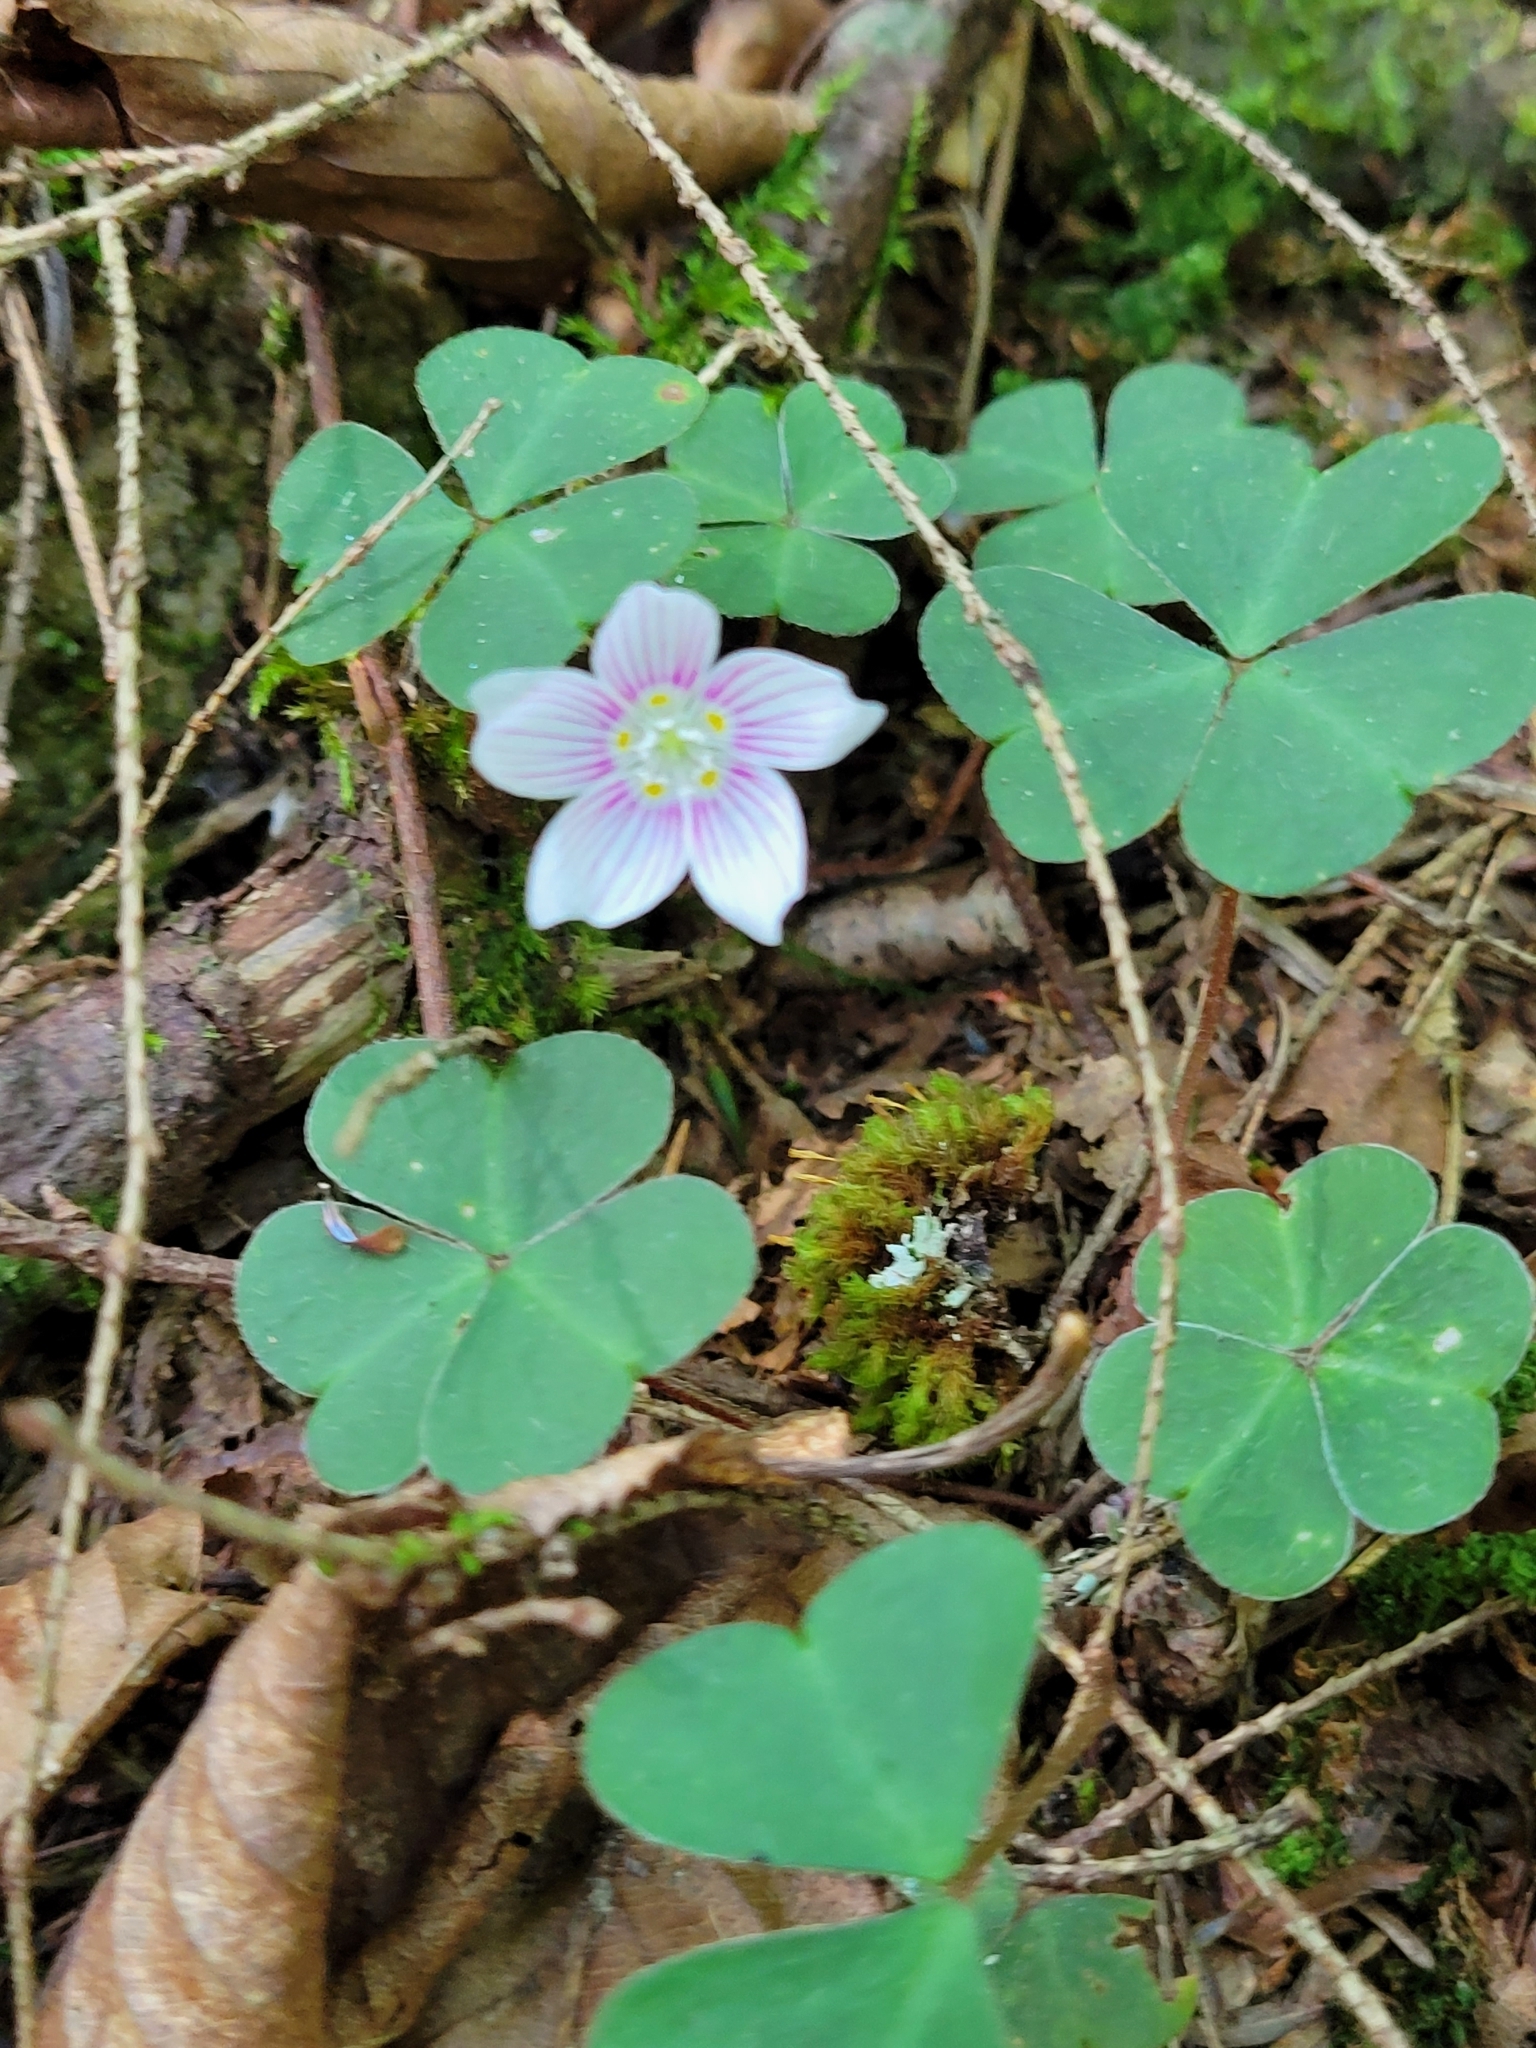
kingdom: Plantae
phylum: Tracheophyta
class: Magnoliopsida
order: Oxalidales
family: Oxalidaceae
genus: Oxalis
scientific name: Oxalis montana
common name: American wood-sorrel
